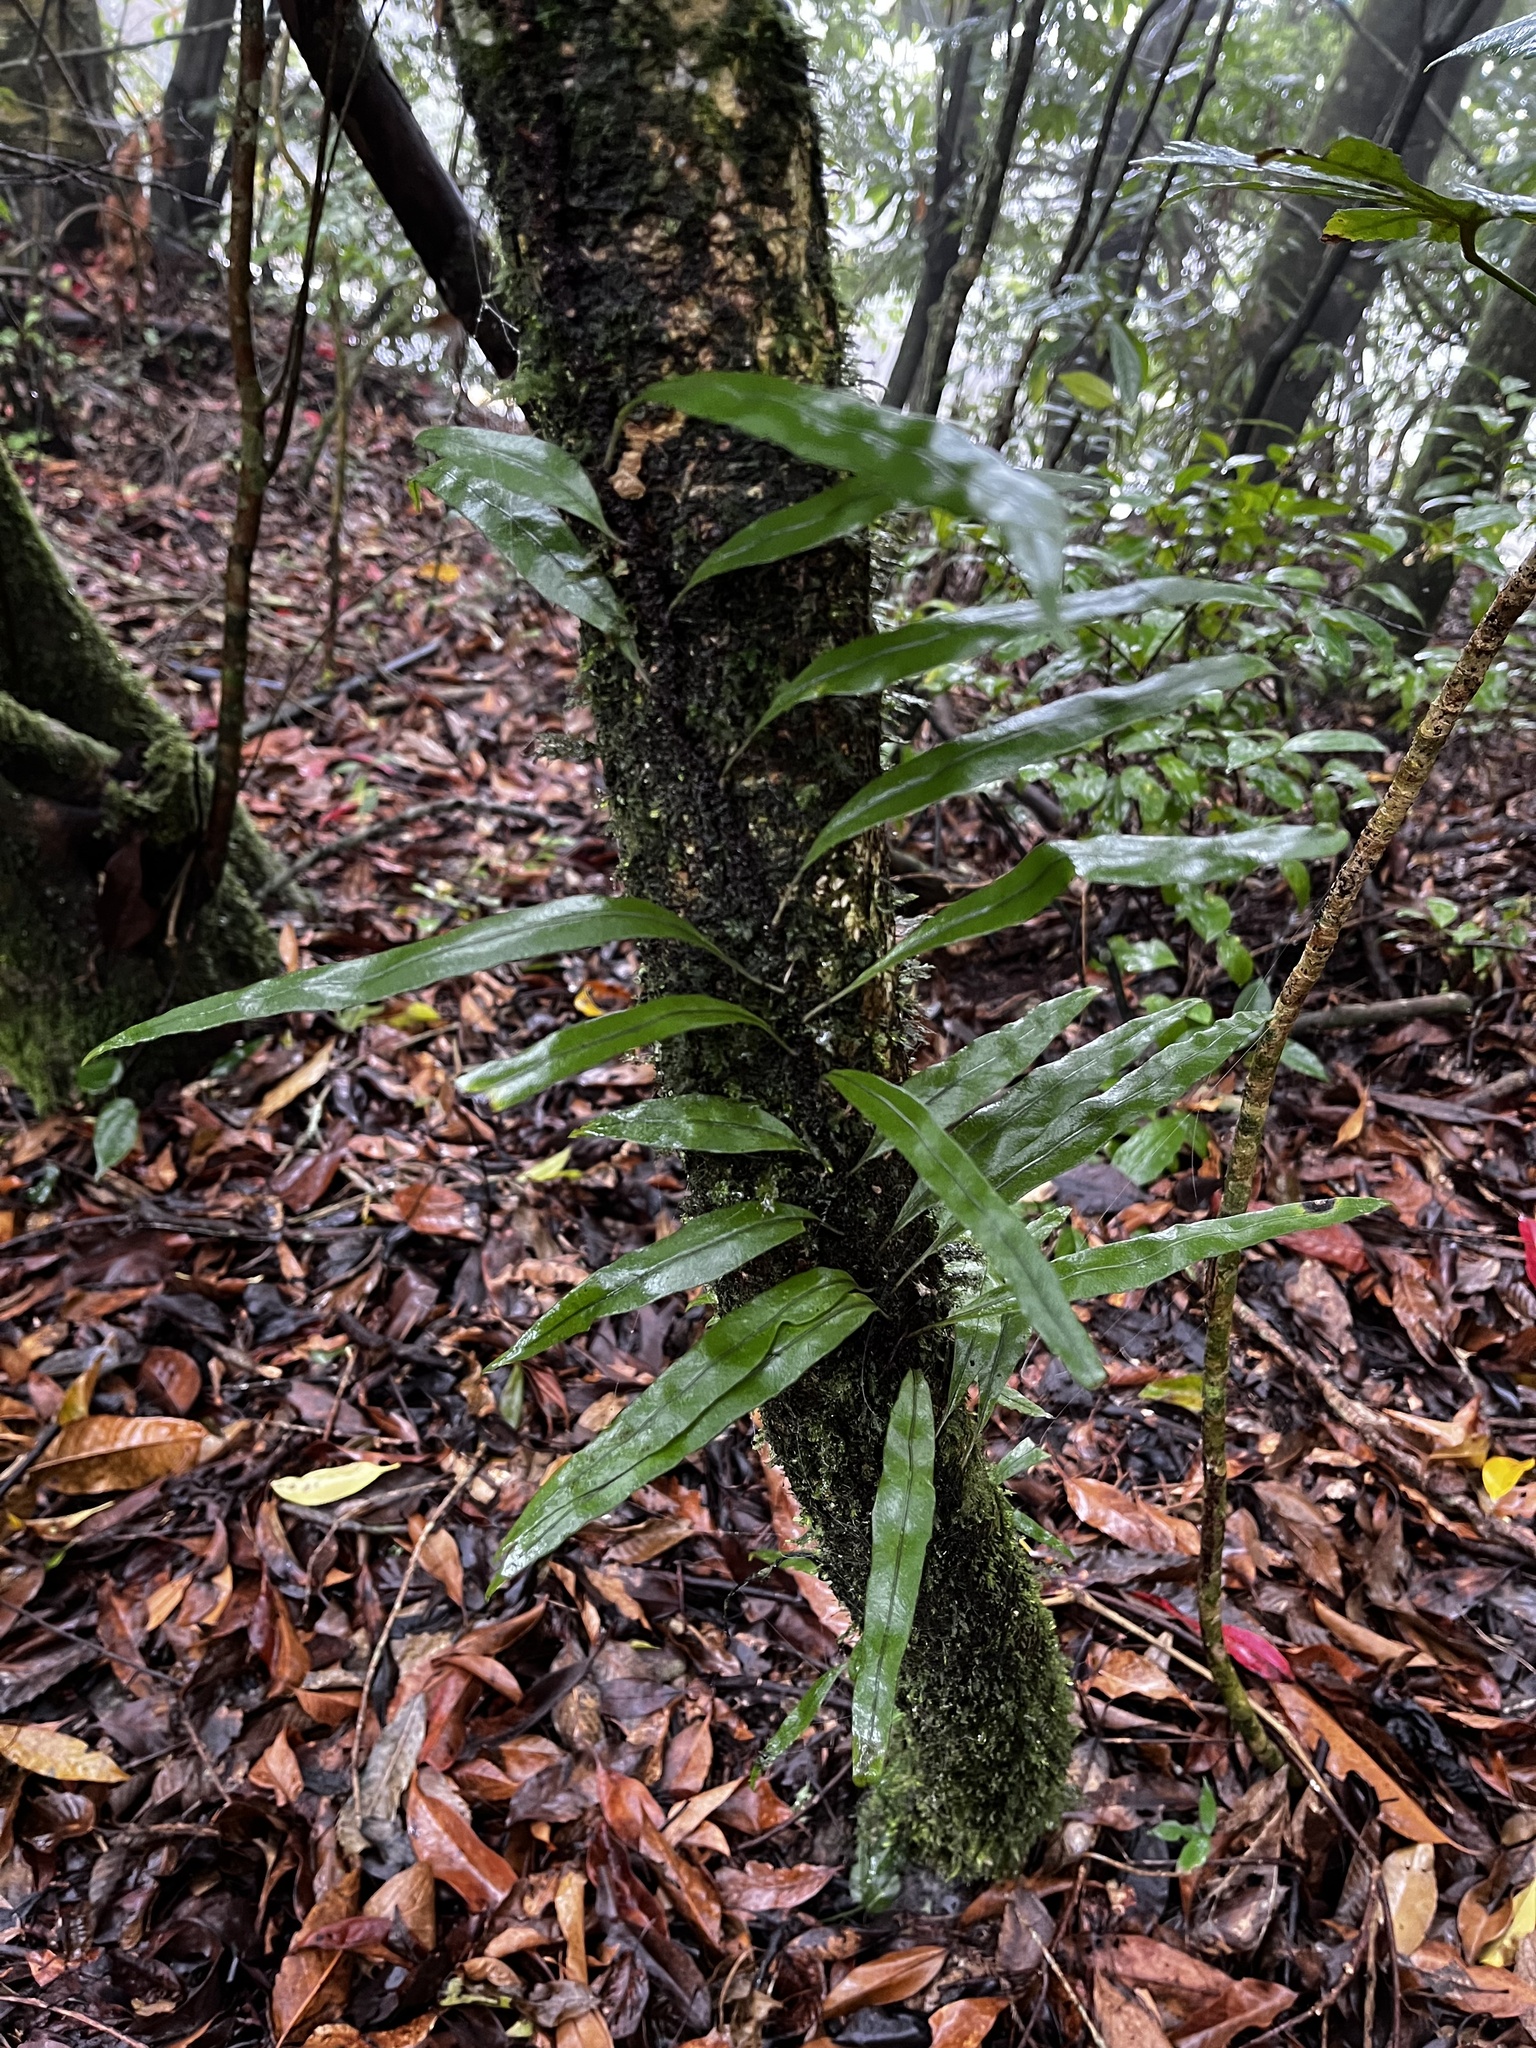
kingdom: Plantae
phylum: Tracheophyta
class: Polypodiopsida
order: Polypodiales
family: Polypodiaceae
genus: Lepisorus
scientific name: Lepisorus superficialis
